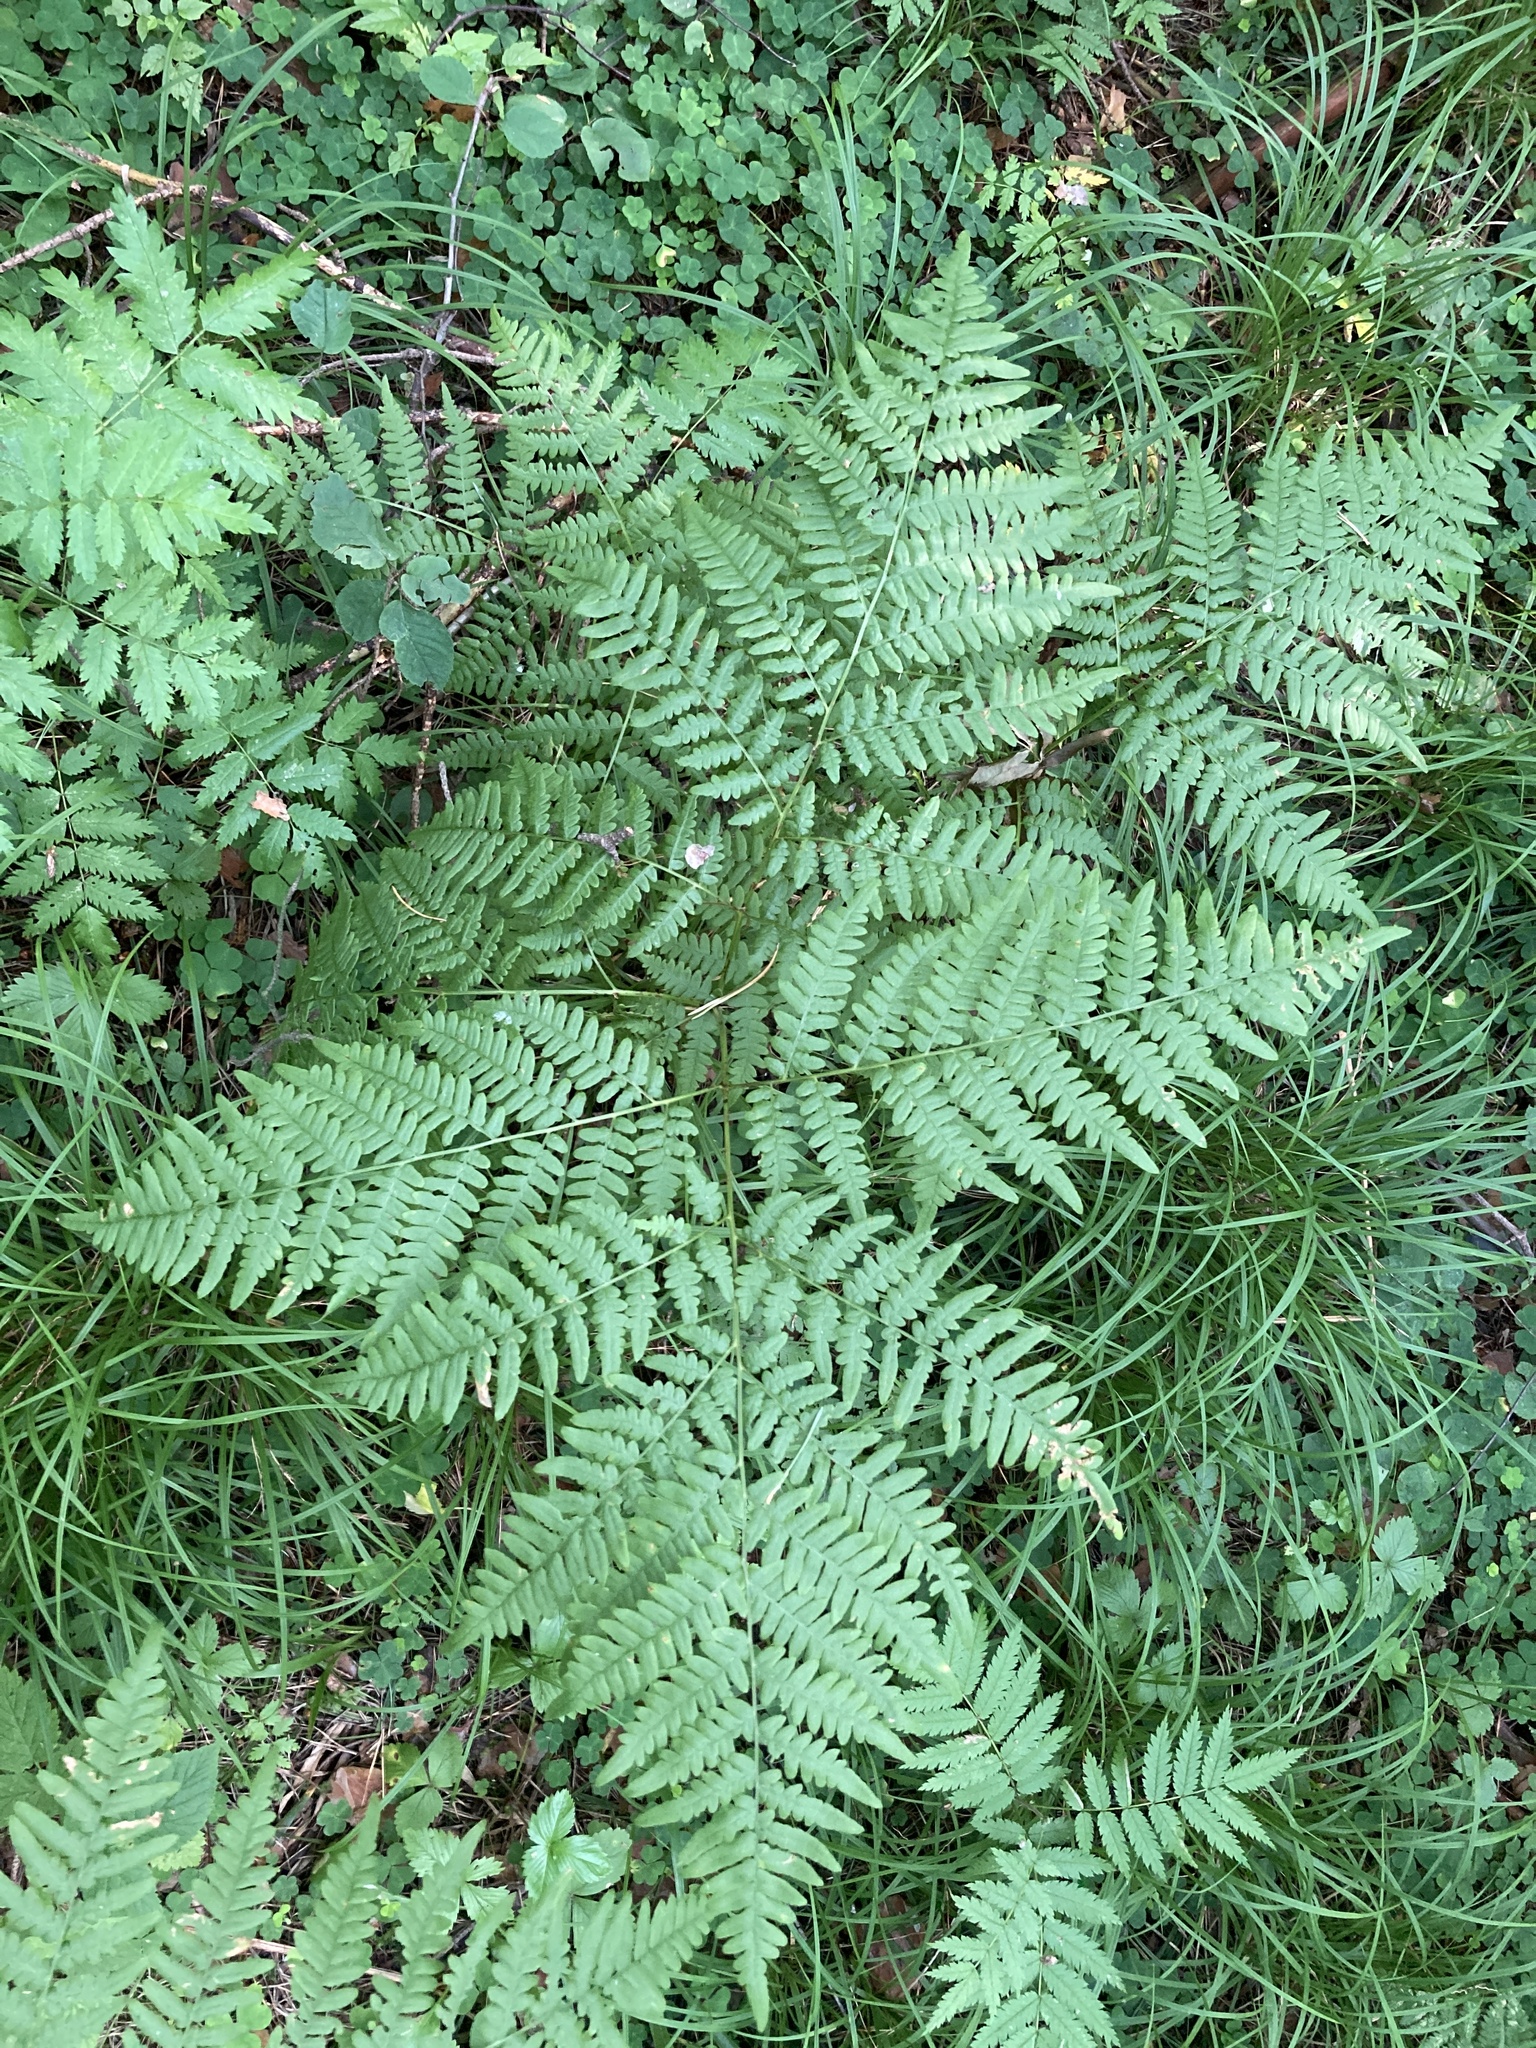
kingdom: Plantae
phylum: Tracheophyta
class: Polypodiopsida
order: Polypodiales
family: Dennstaedtiaceae
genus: Pteridium
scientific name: Pteridium aquilinum
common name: Bracken
